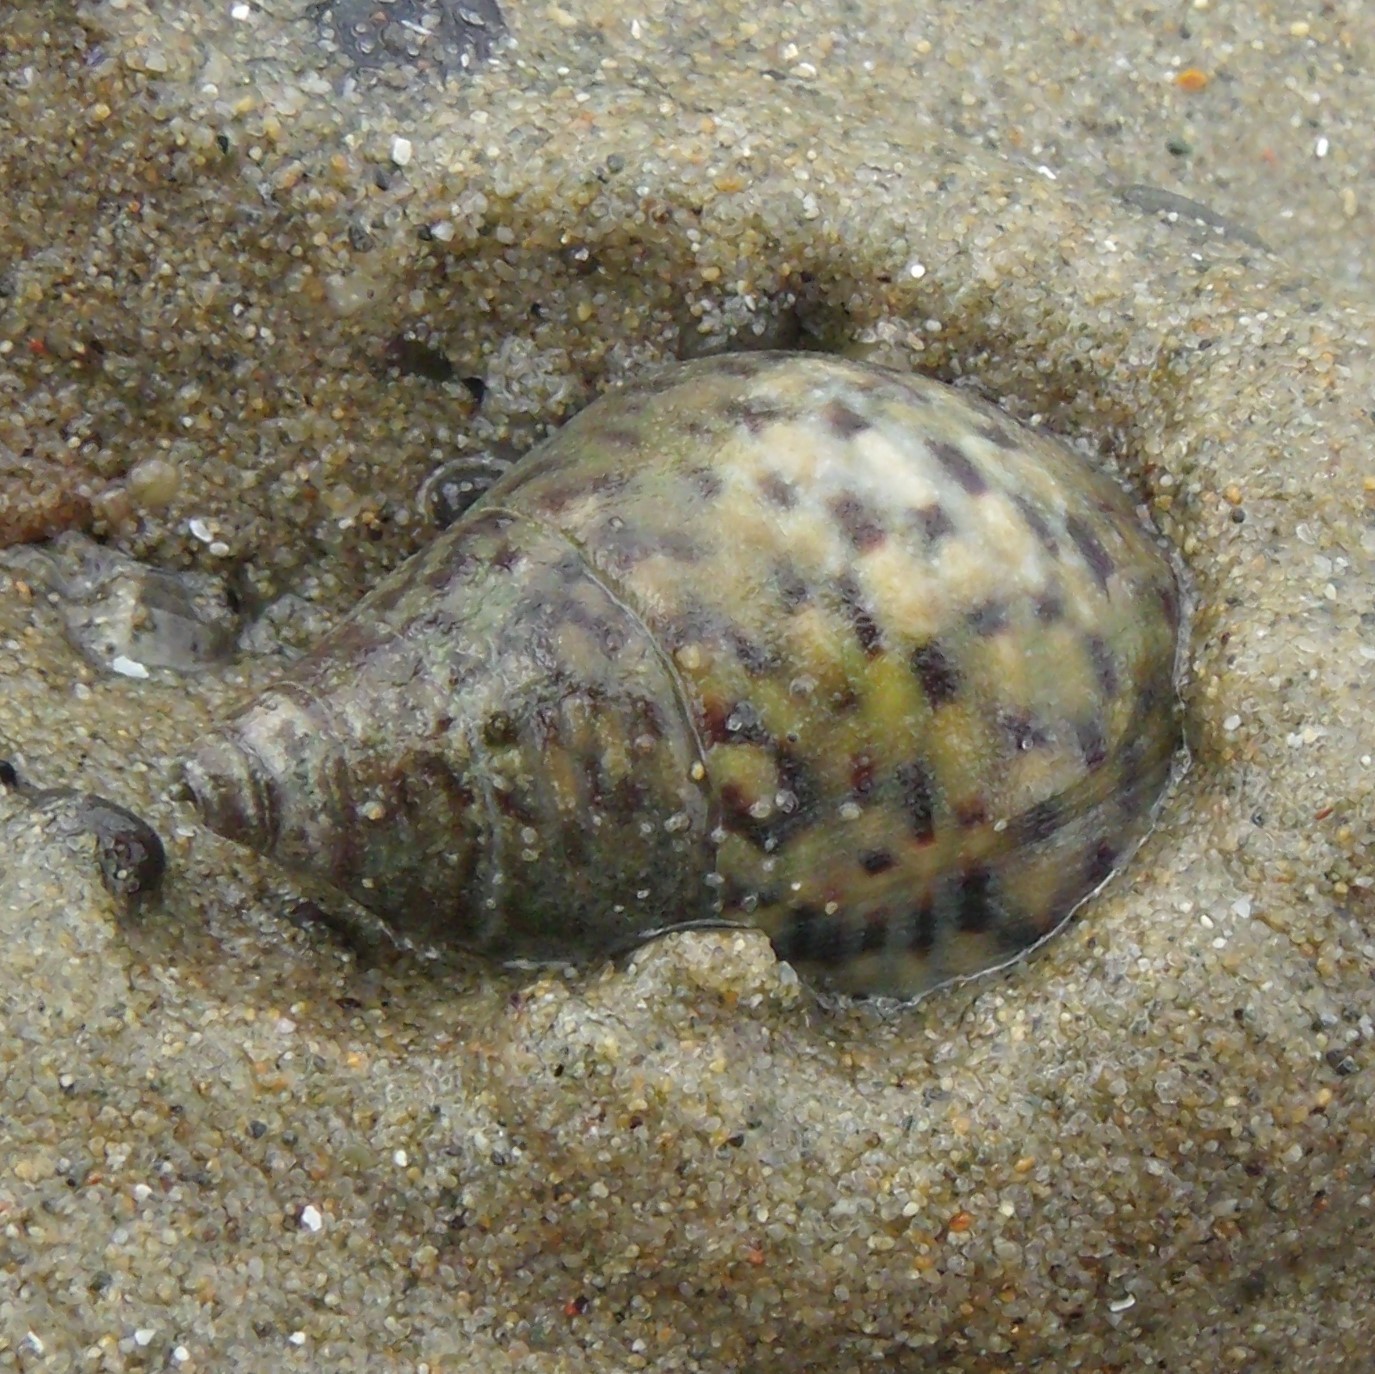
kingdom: Animalia
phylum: Mollusca
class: Gastropoda
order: Neogastropoda
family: Cominellidae
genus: Cominella
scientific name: Cominella maculosa
